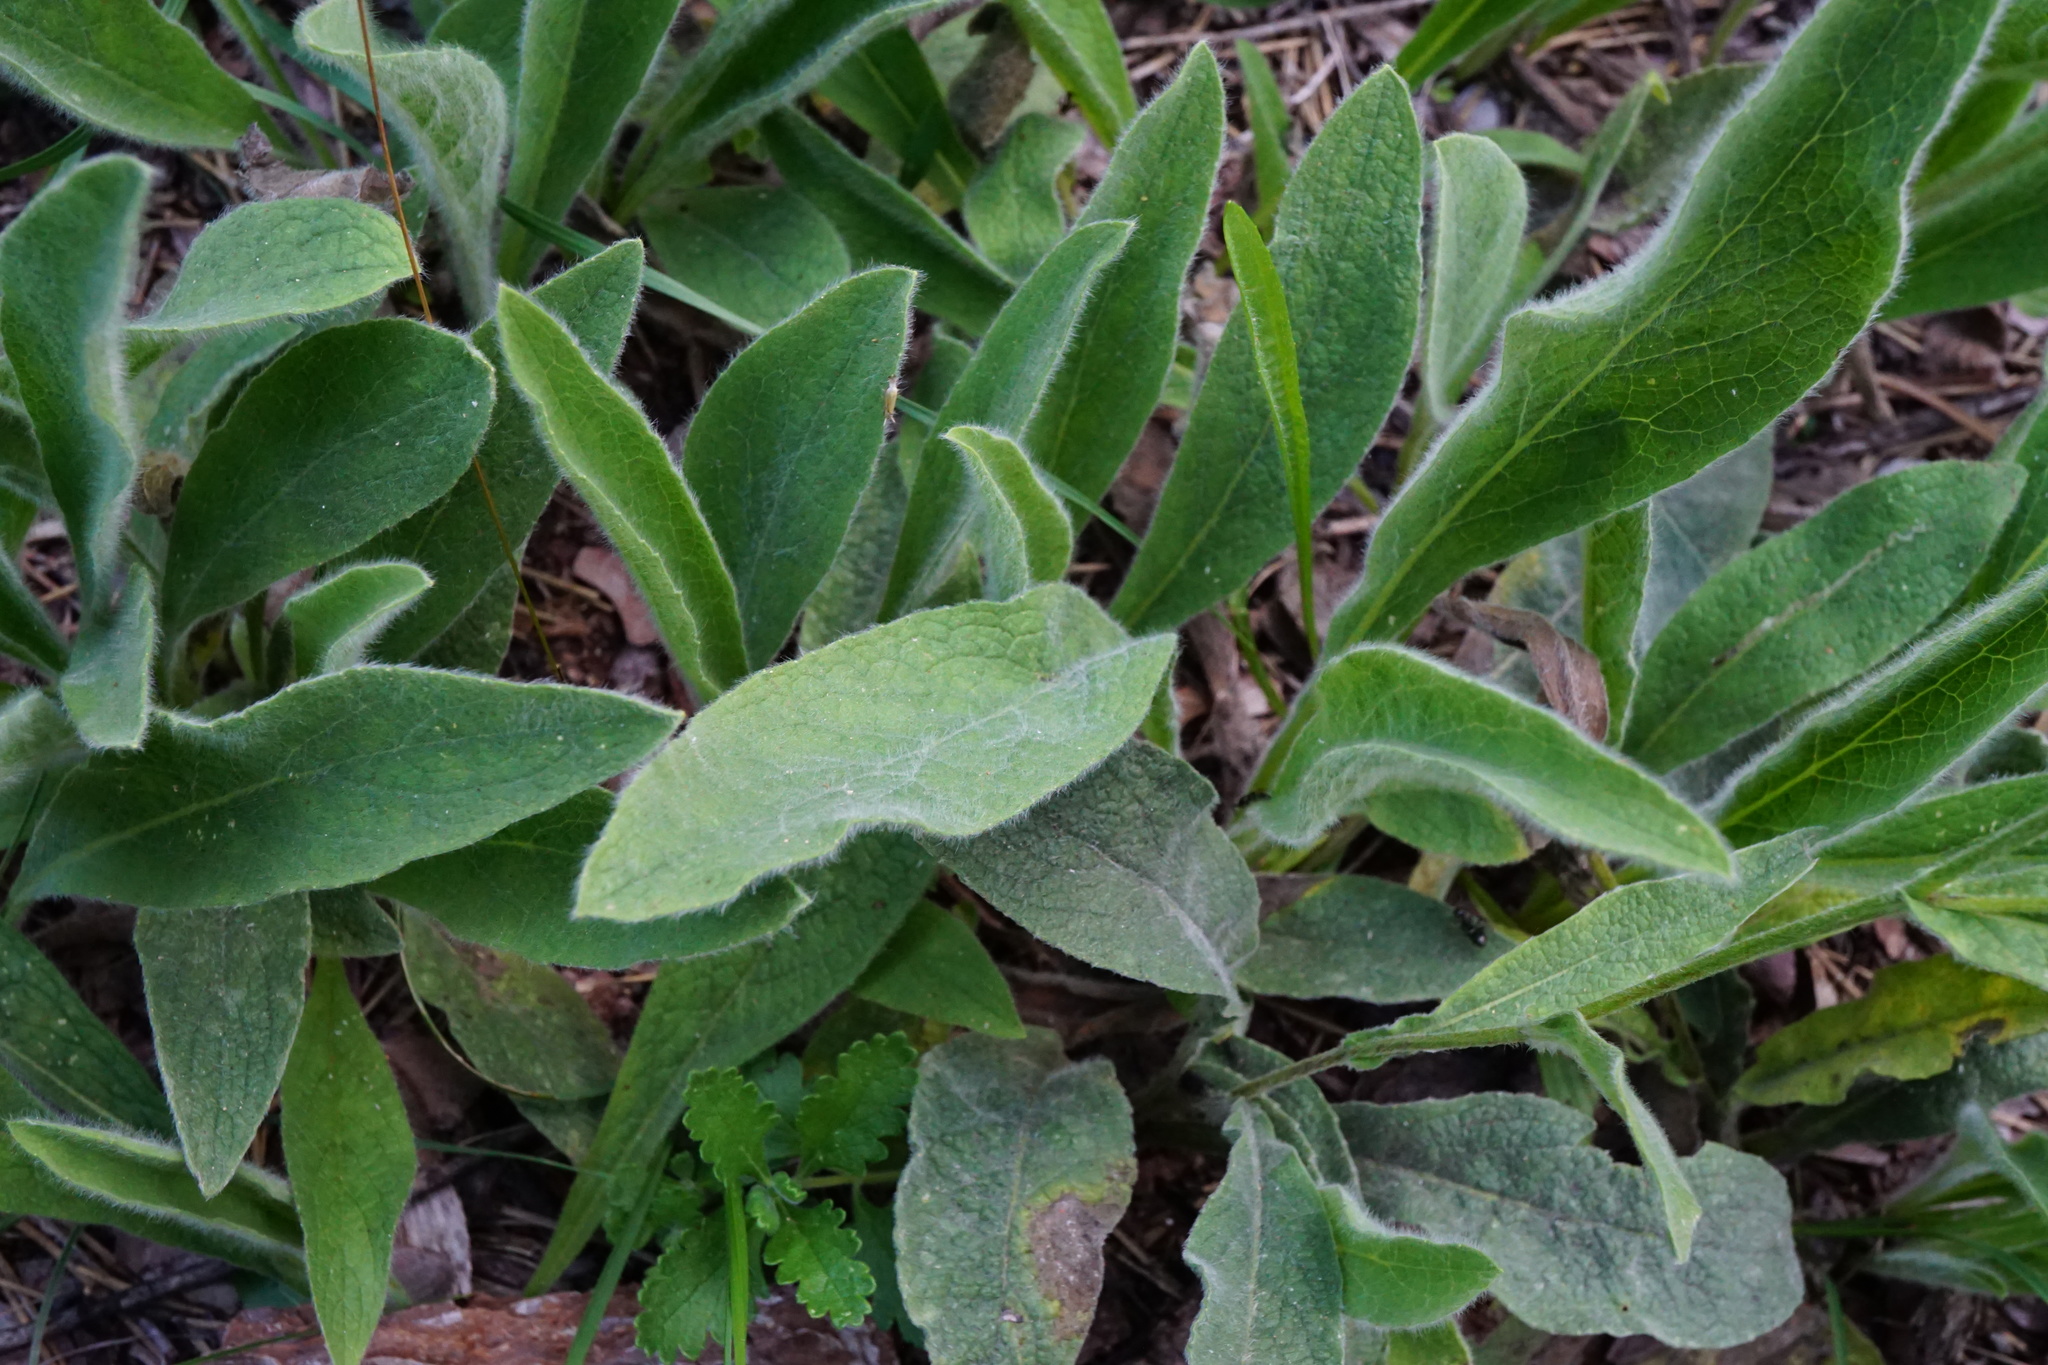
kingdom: Plantae
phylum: Tracheophyta
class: Magnoliopsida
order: Asterales
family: Asteraceae
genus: Pentanema
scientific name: Pentanema oculus-christi
